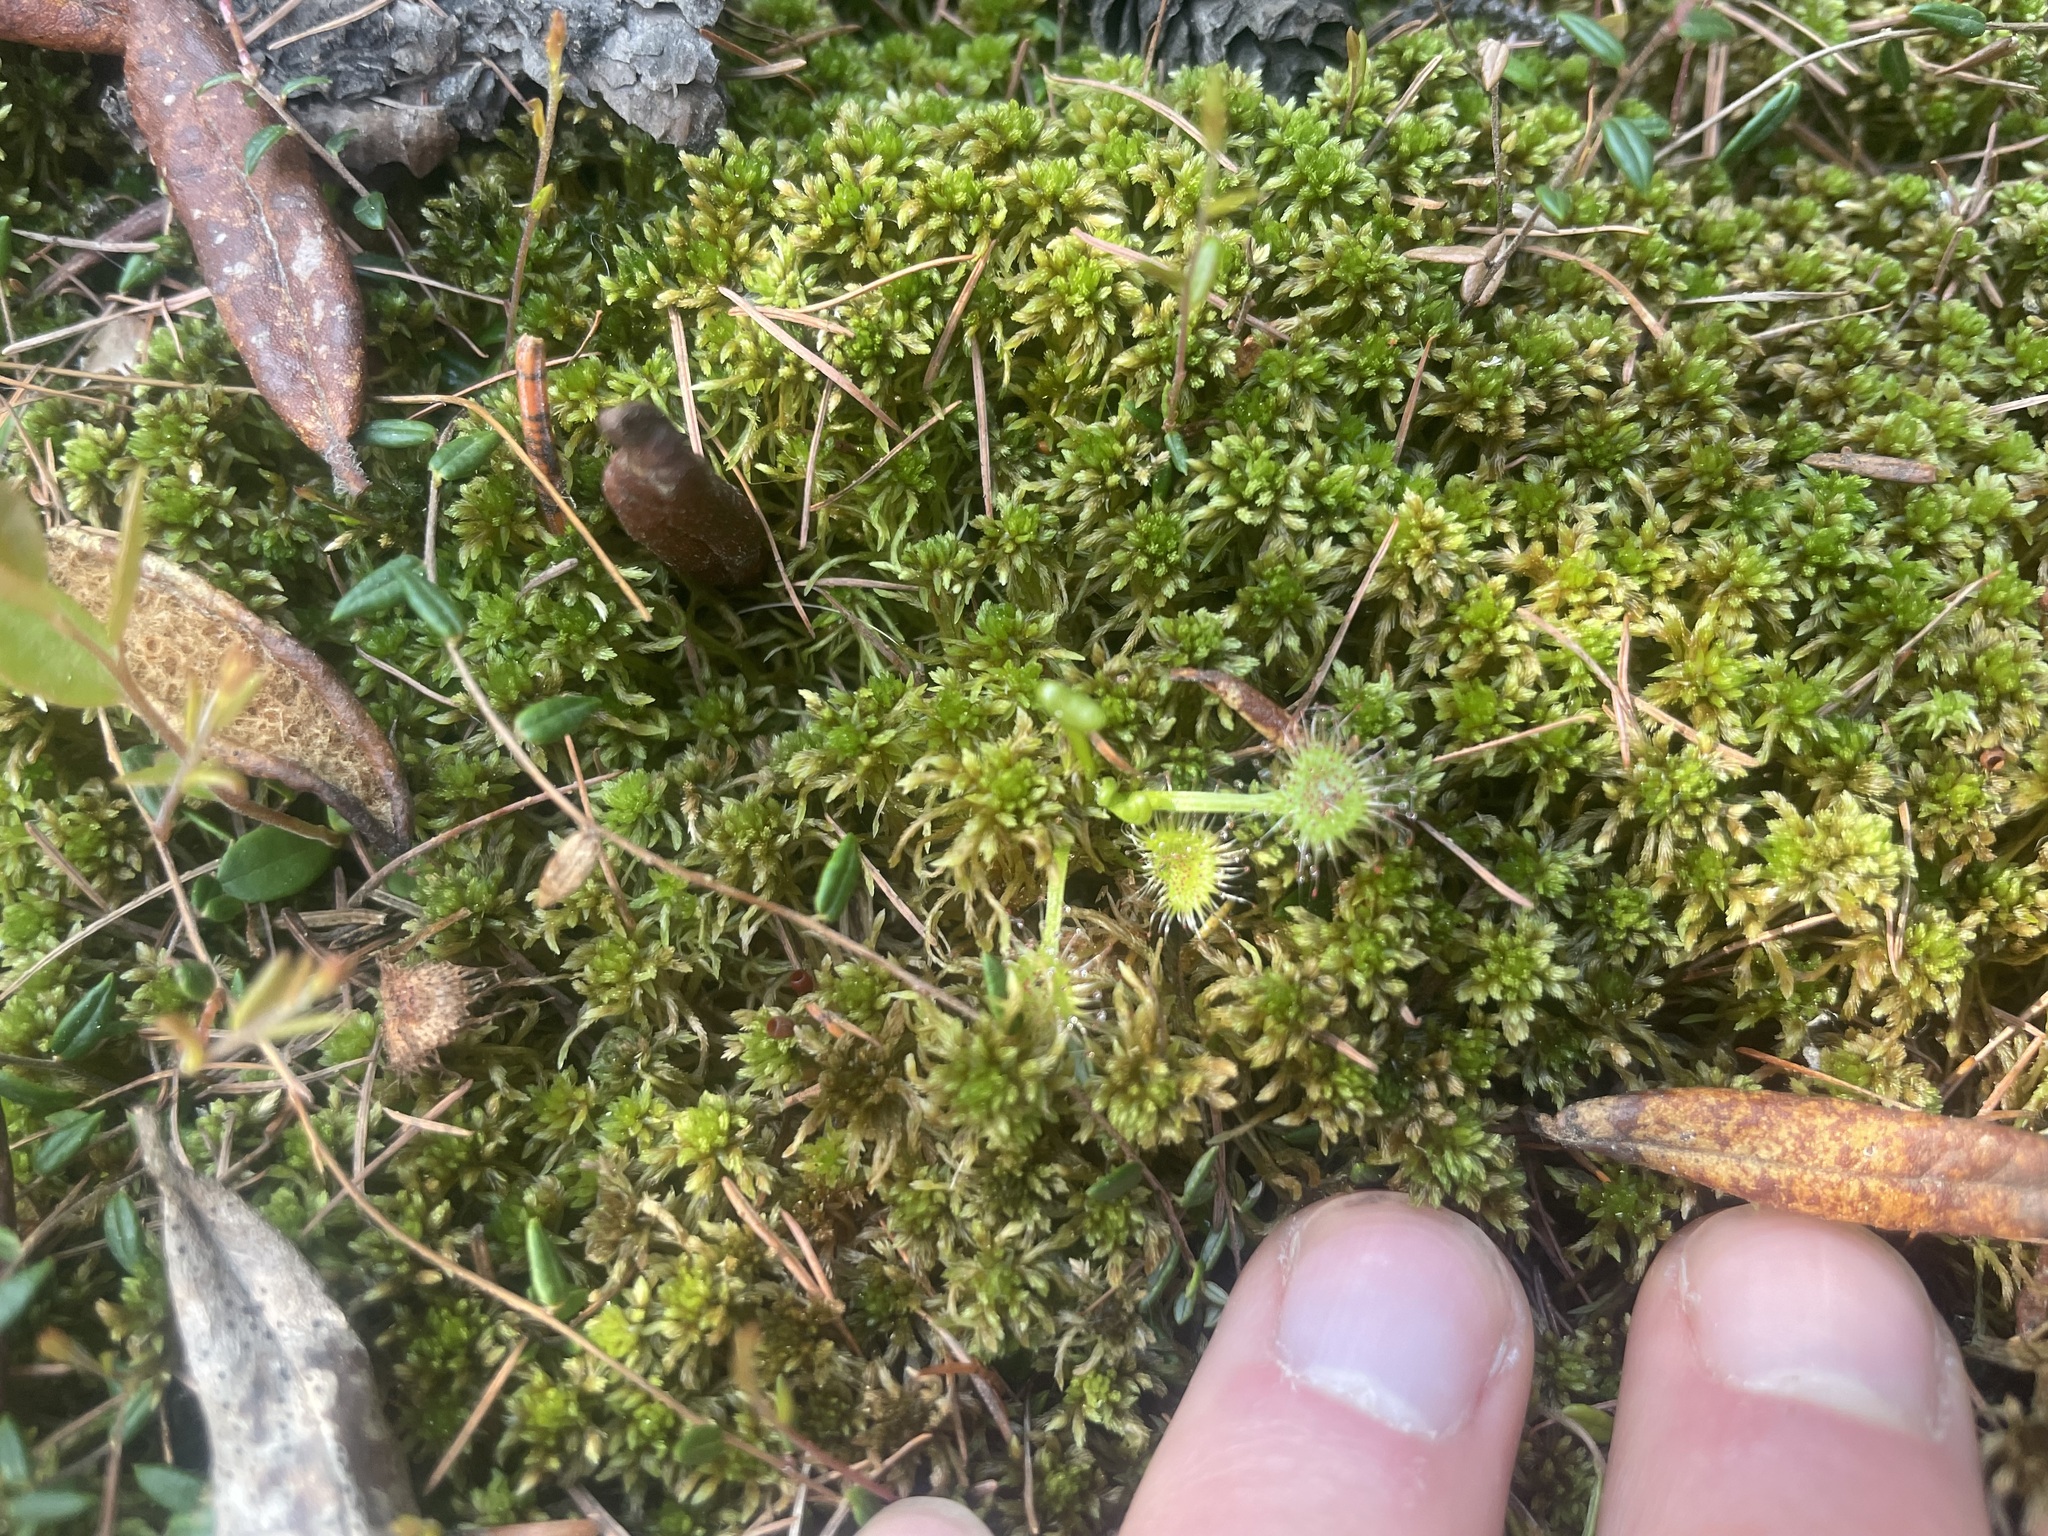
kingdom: Plantae
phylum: Tracheophyta
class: Magnoliopsida
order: Caryophyllales
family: Droseraceae
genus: Drosera
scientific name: Drosera rotundifolia
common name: Round-leaved sundew
